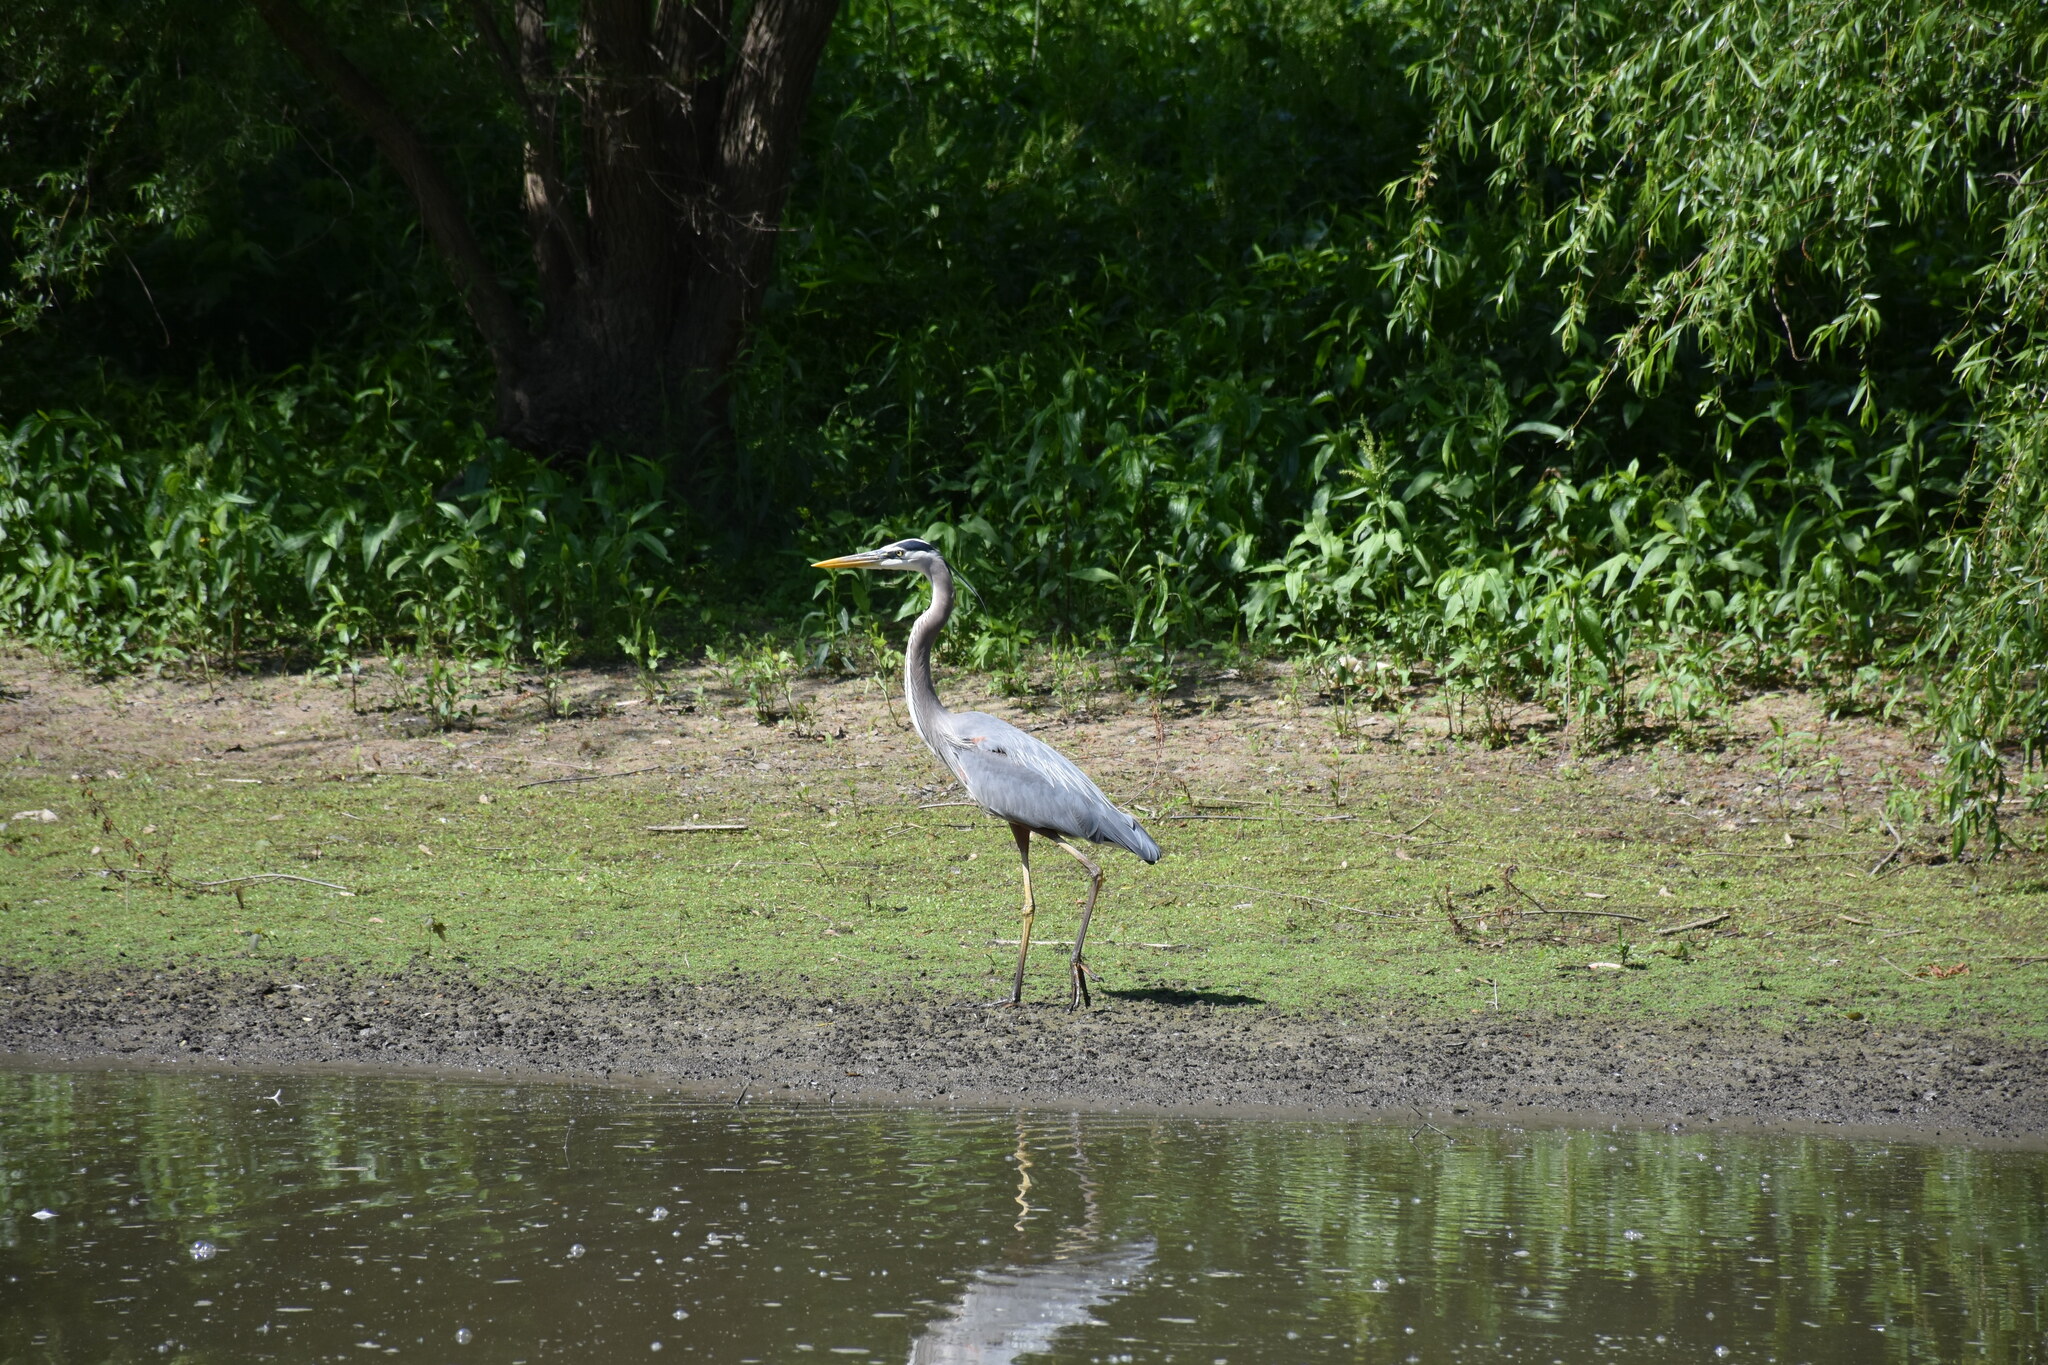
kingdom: Animalia
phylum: Chordata
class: Aves
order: Pelecaniformes
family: Ardeidae
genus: Ardea
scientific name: Ardea herodias
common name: Great blue heron
